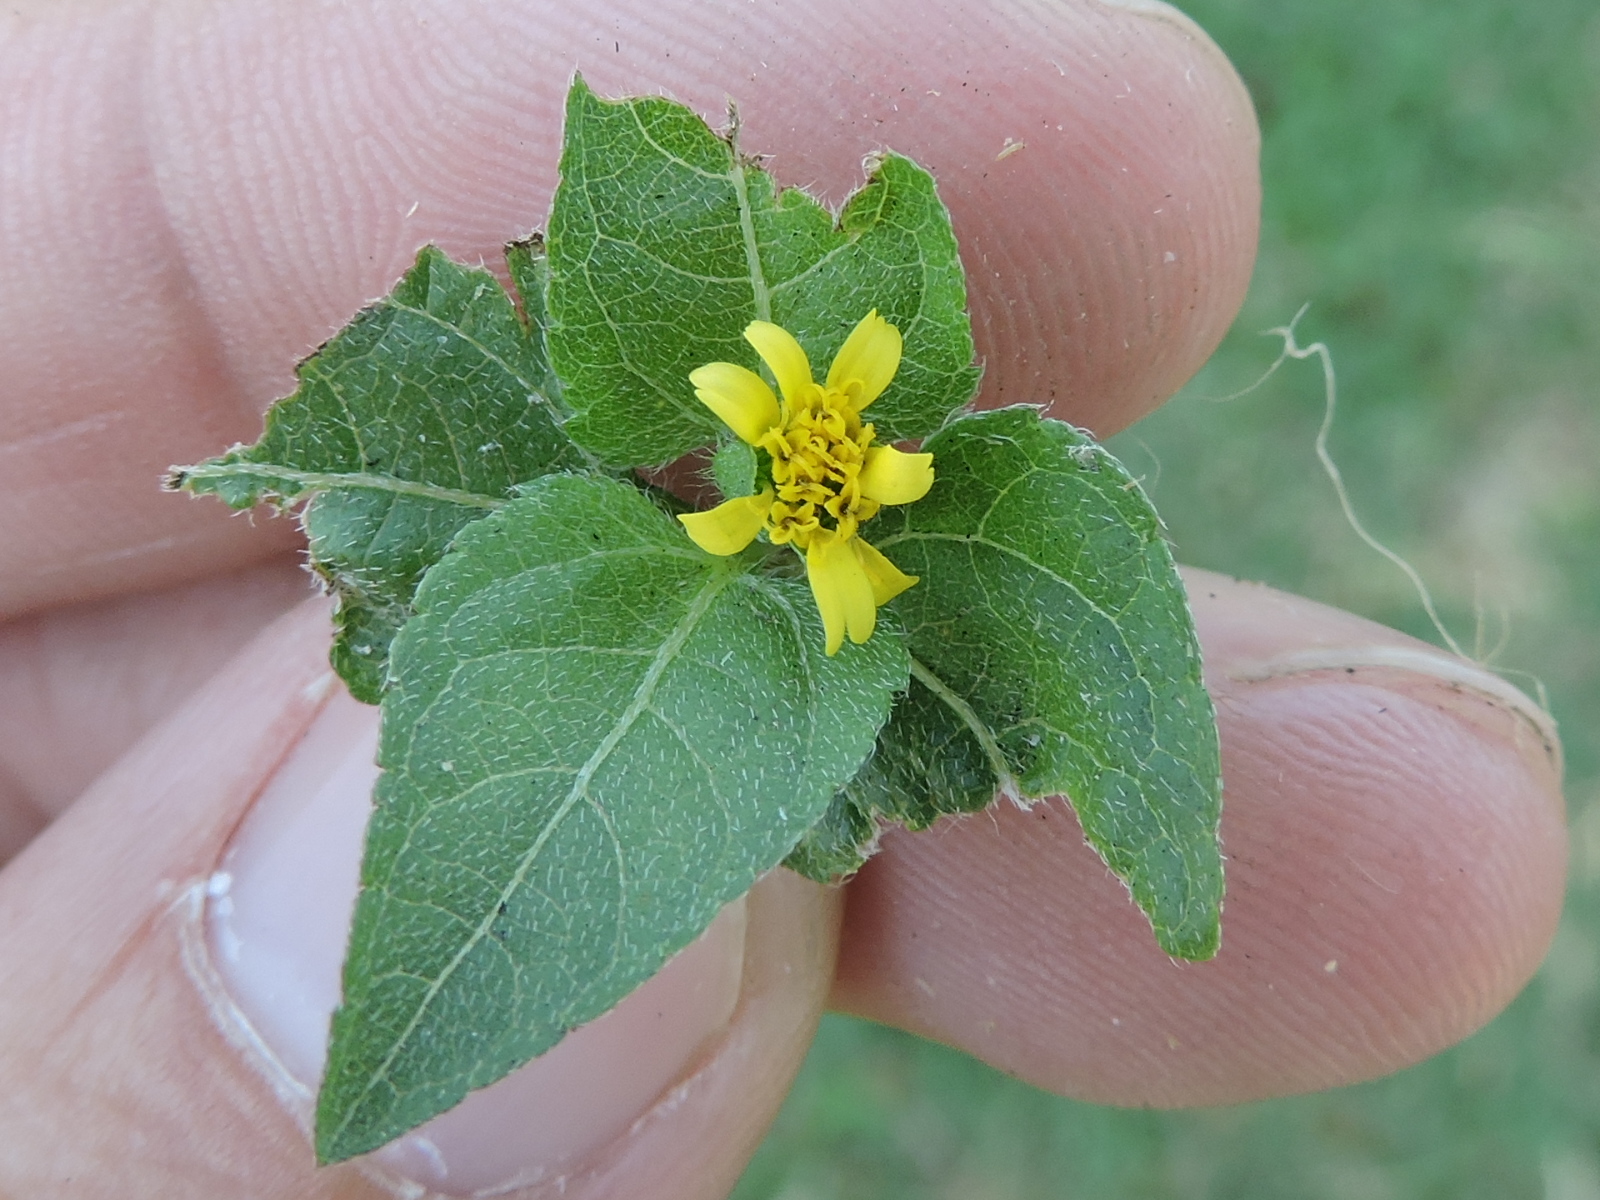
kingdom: Plantae
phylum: Tracheophyta
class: Magnoliopsida
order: Asterales
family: Asteraceae
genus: Calyptocarpus
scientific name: Calyptocarpus vialis
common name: Straggler daisy
